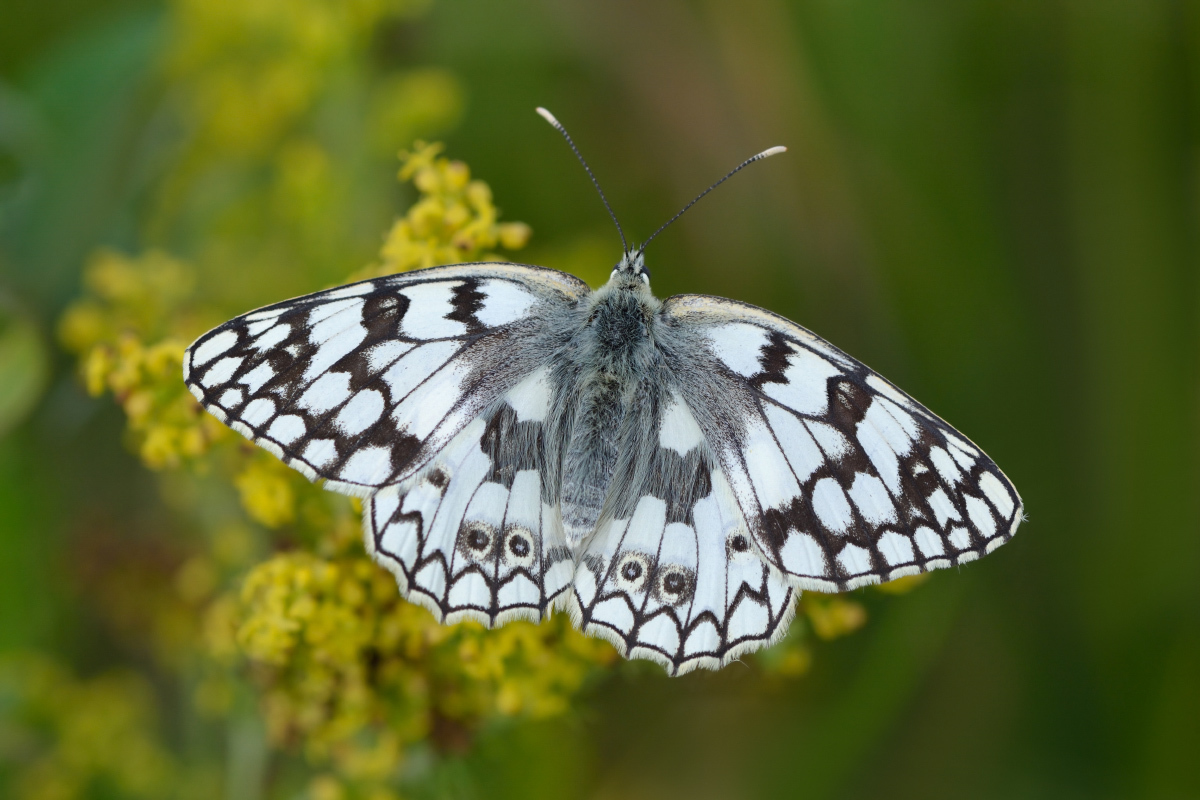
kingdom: Animalia
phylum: Arthropoda
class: Insecta
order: Lepidoptera
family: Nymphalidae
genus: Melanargia
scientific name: Melanargia japygia
